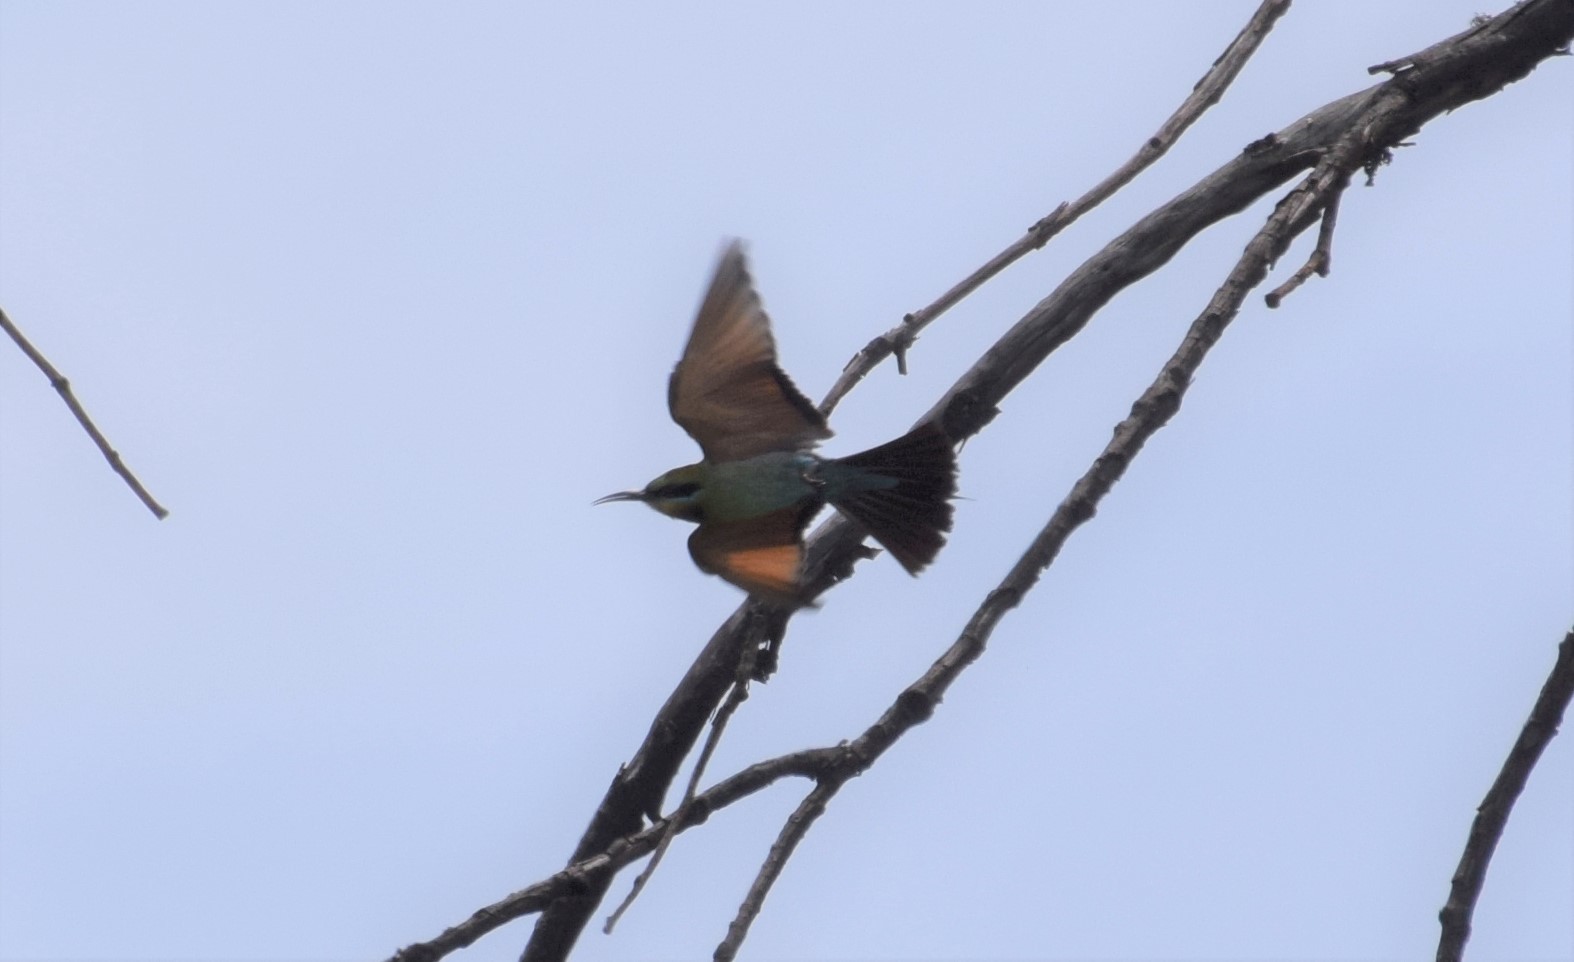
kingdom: Animalia
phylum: Chordata
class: Aves
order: Coraciiformes
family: Meropidae
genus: Merops
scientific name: Merops ornatus
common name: Rainbow bee-eater
